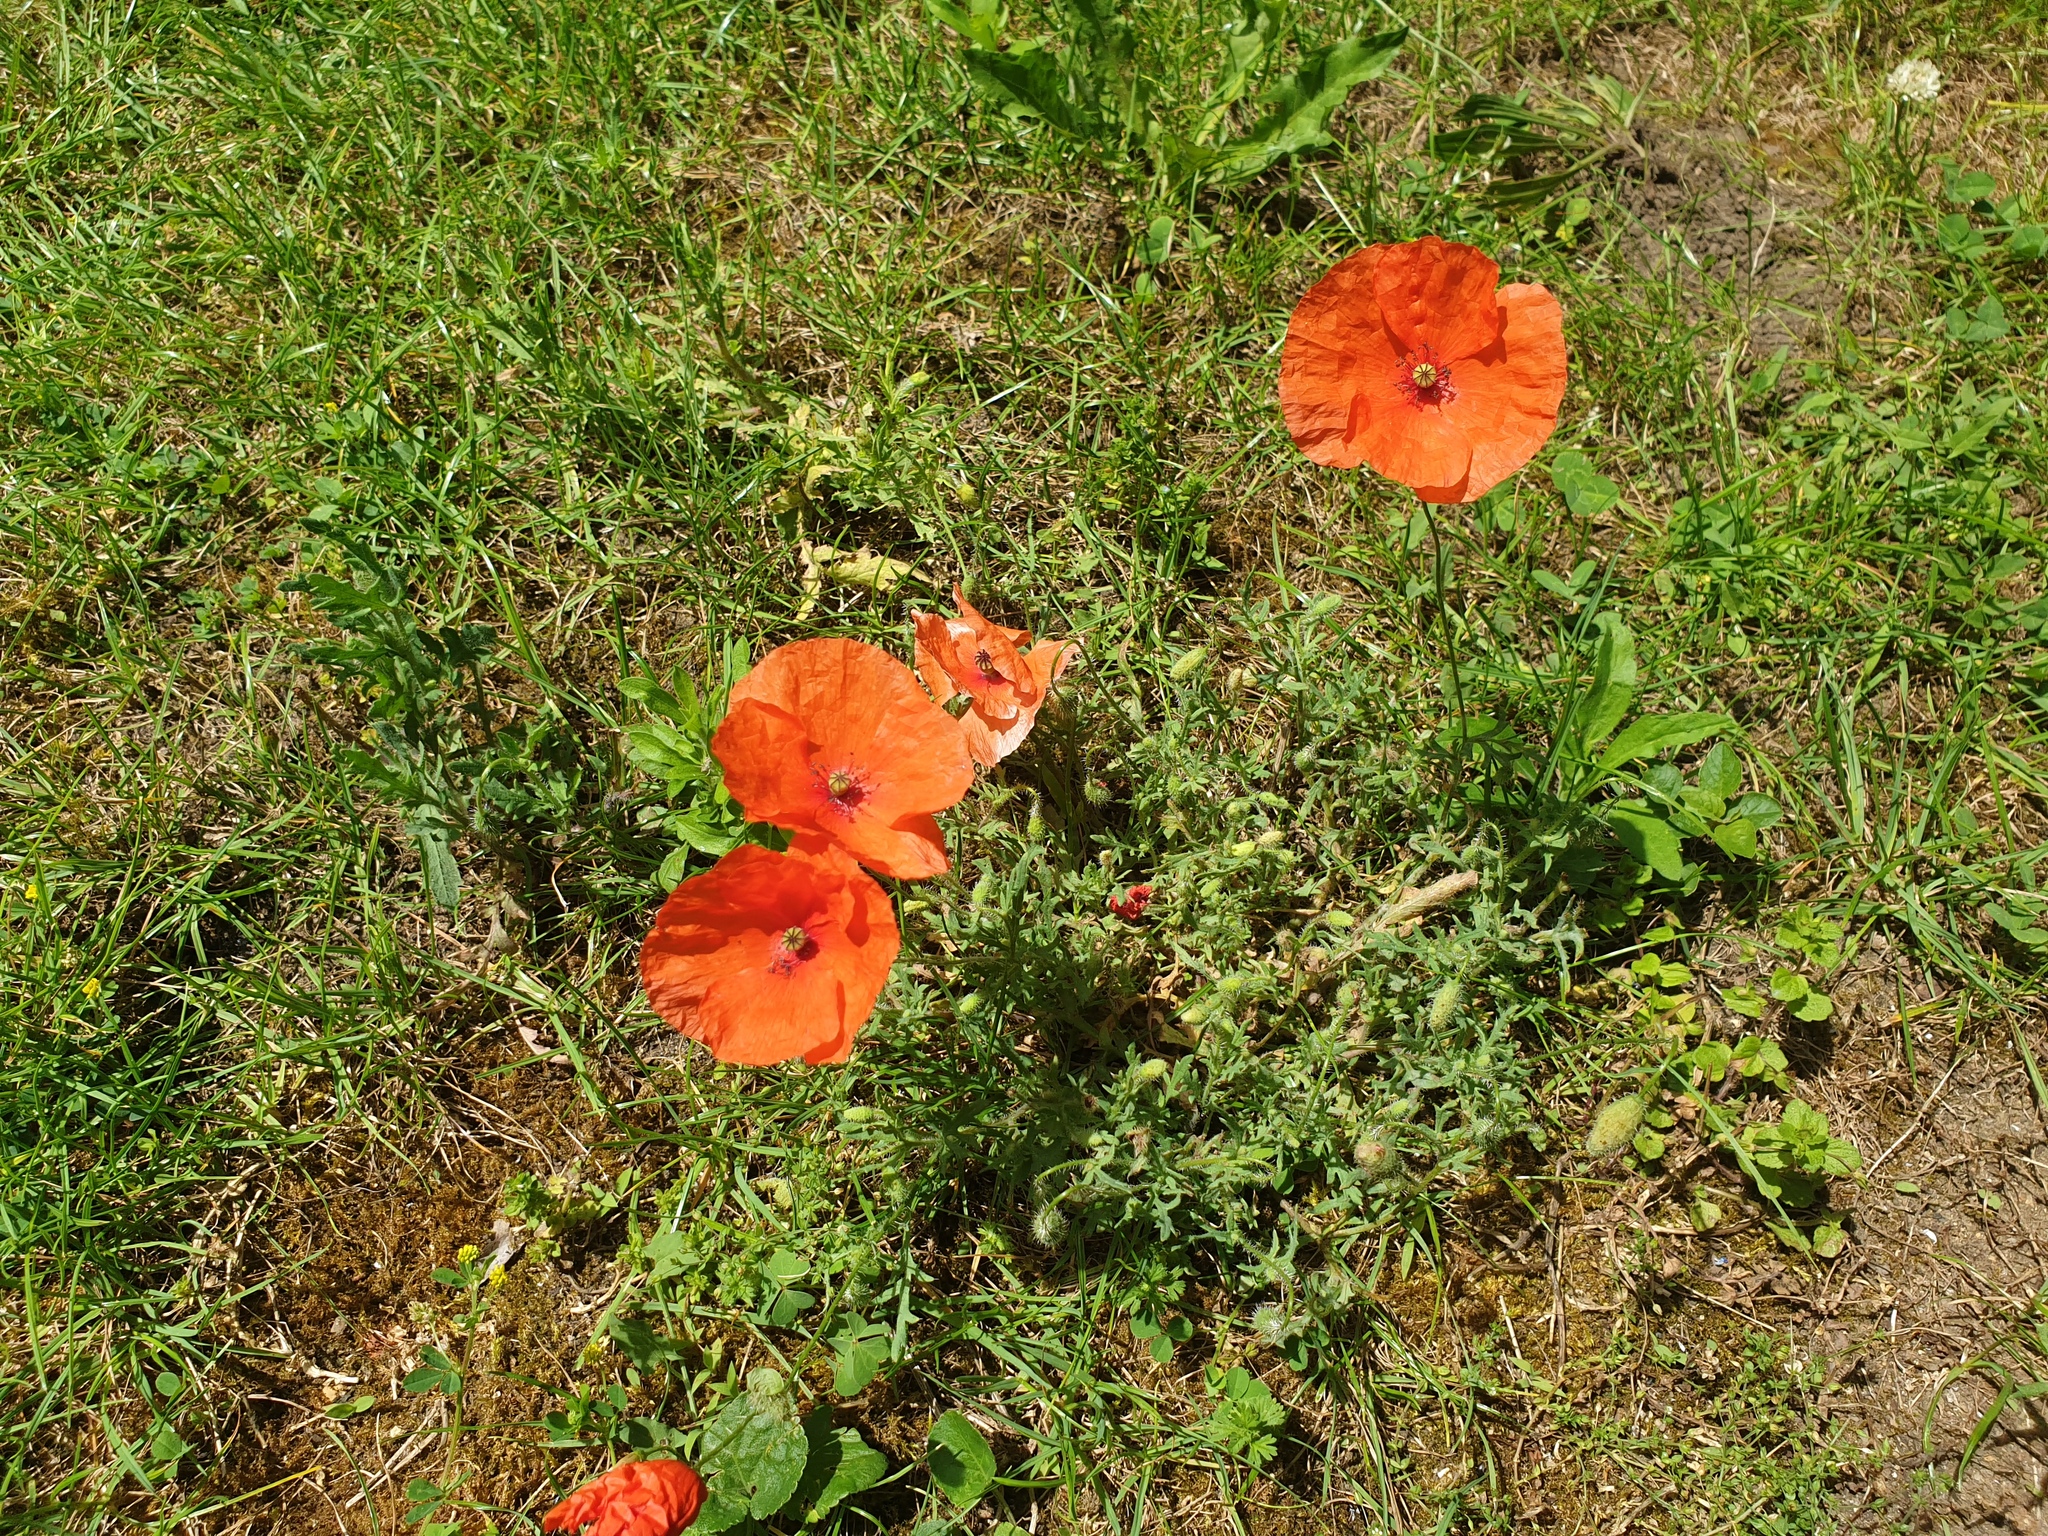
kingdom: Plantae
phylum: Tracheophyta
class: Magnoliopsida
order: Ranunculales
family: Papaveraceae
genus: Papaver
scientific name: Papaver rhoeas
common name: Corn poppy
